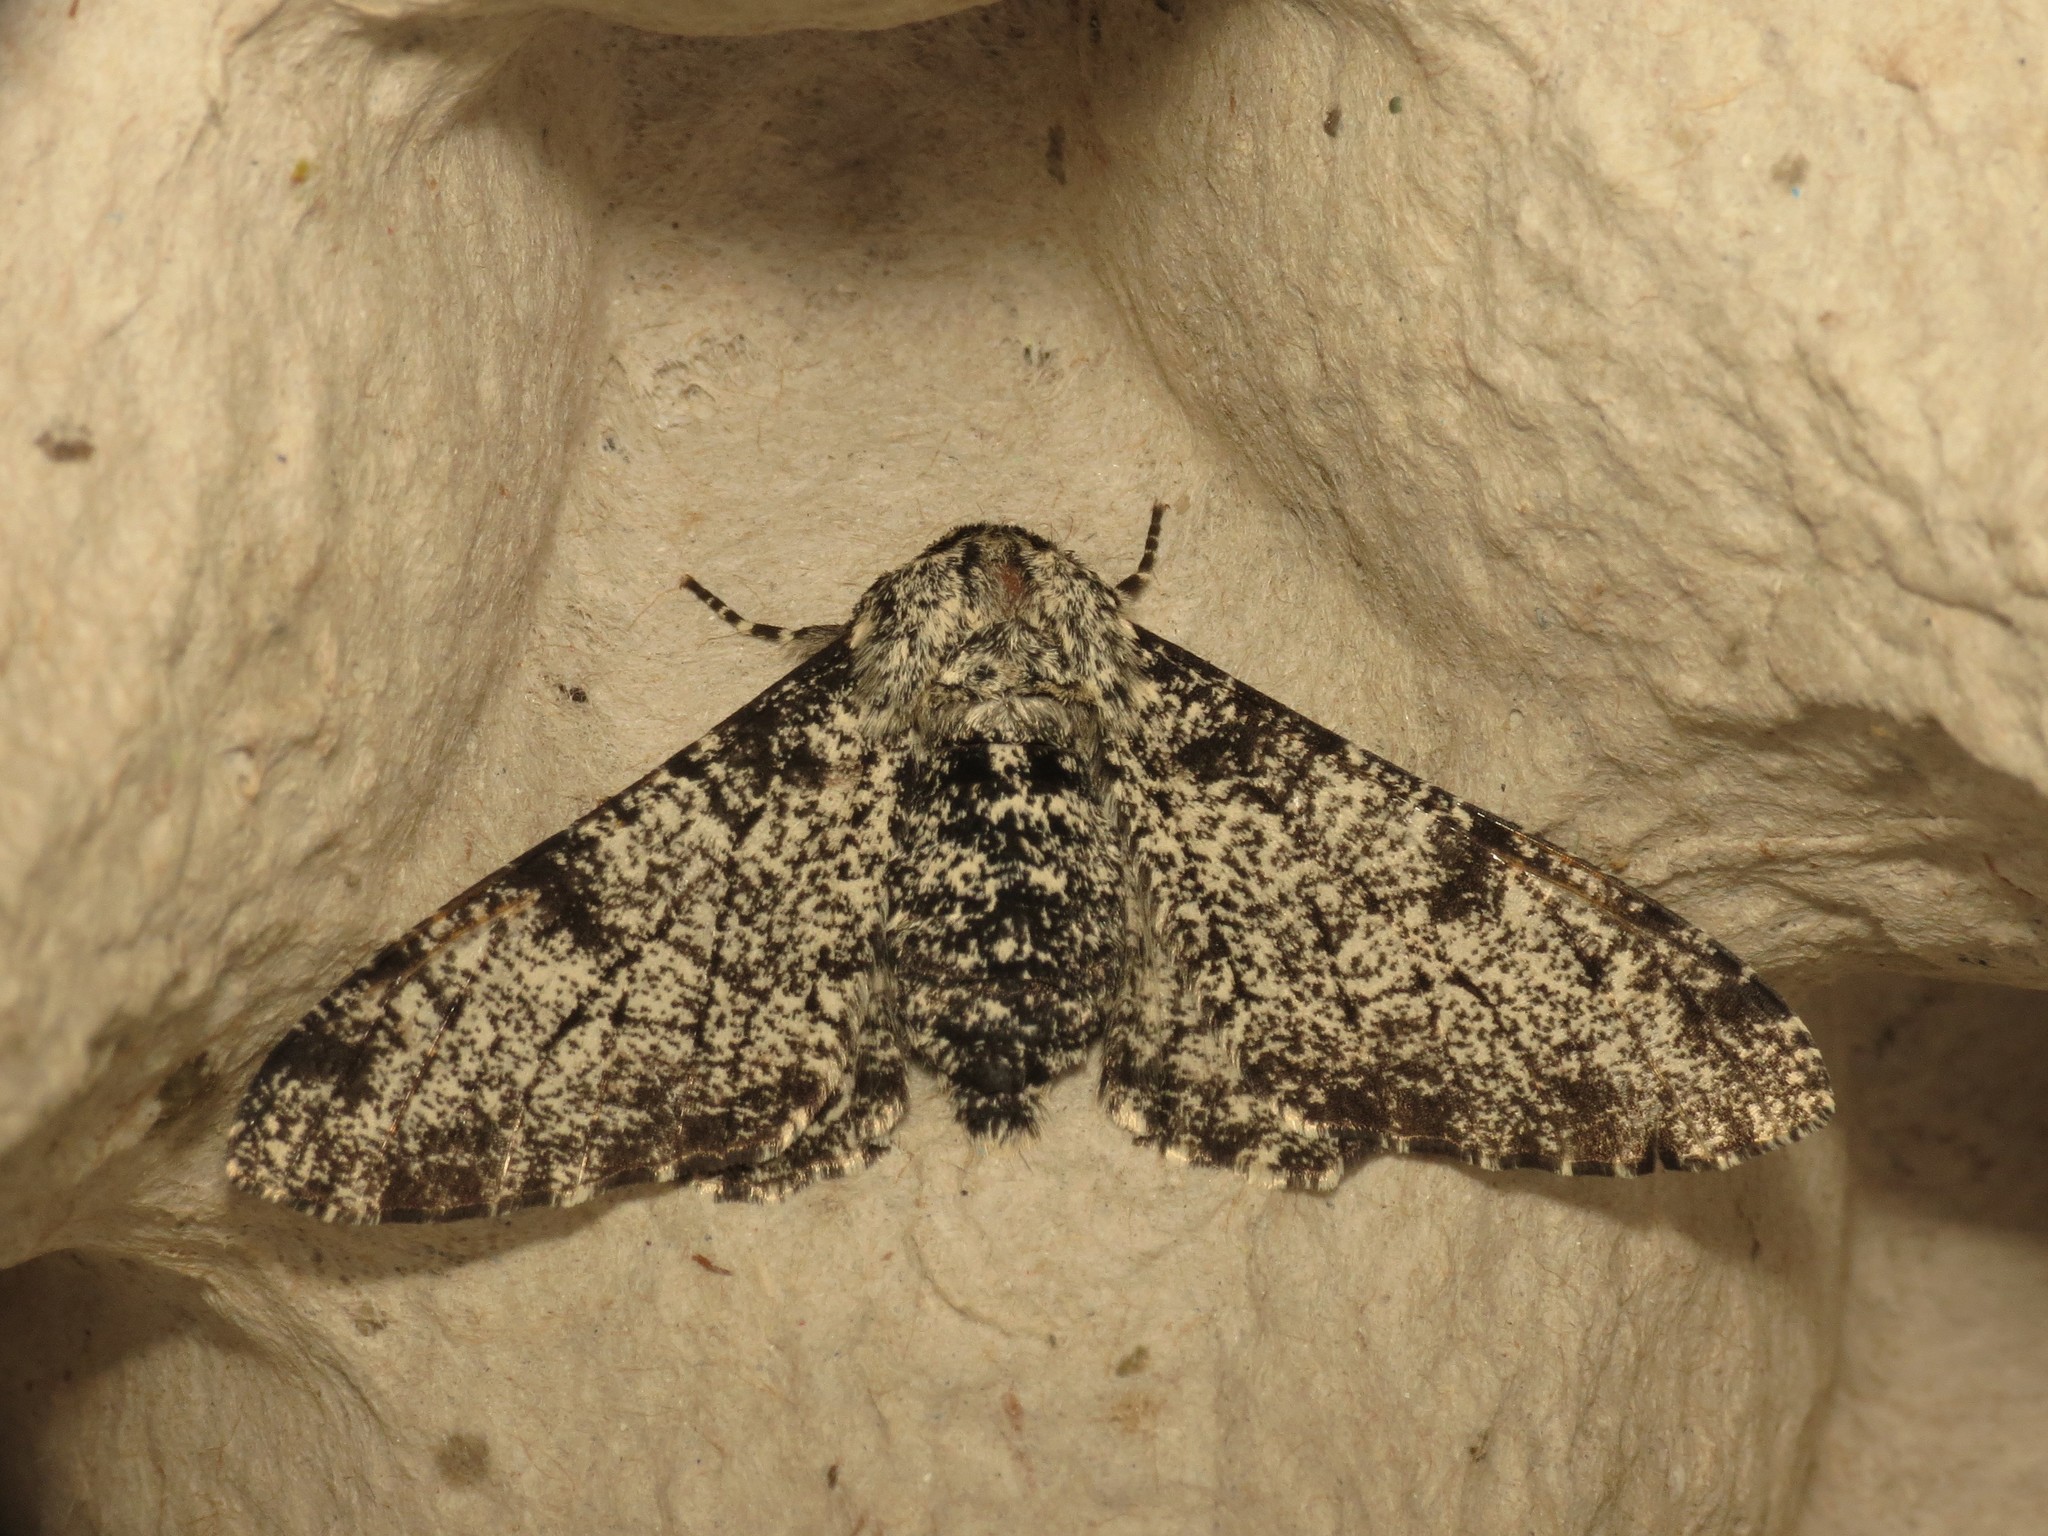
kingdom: Animalia
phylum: Arthropoda
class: Insecta
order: Lepidoptera
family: Geometridae
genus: Biston
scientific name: Biston betularia
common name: Peppered moth
